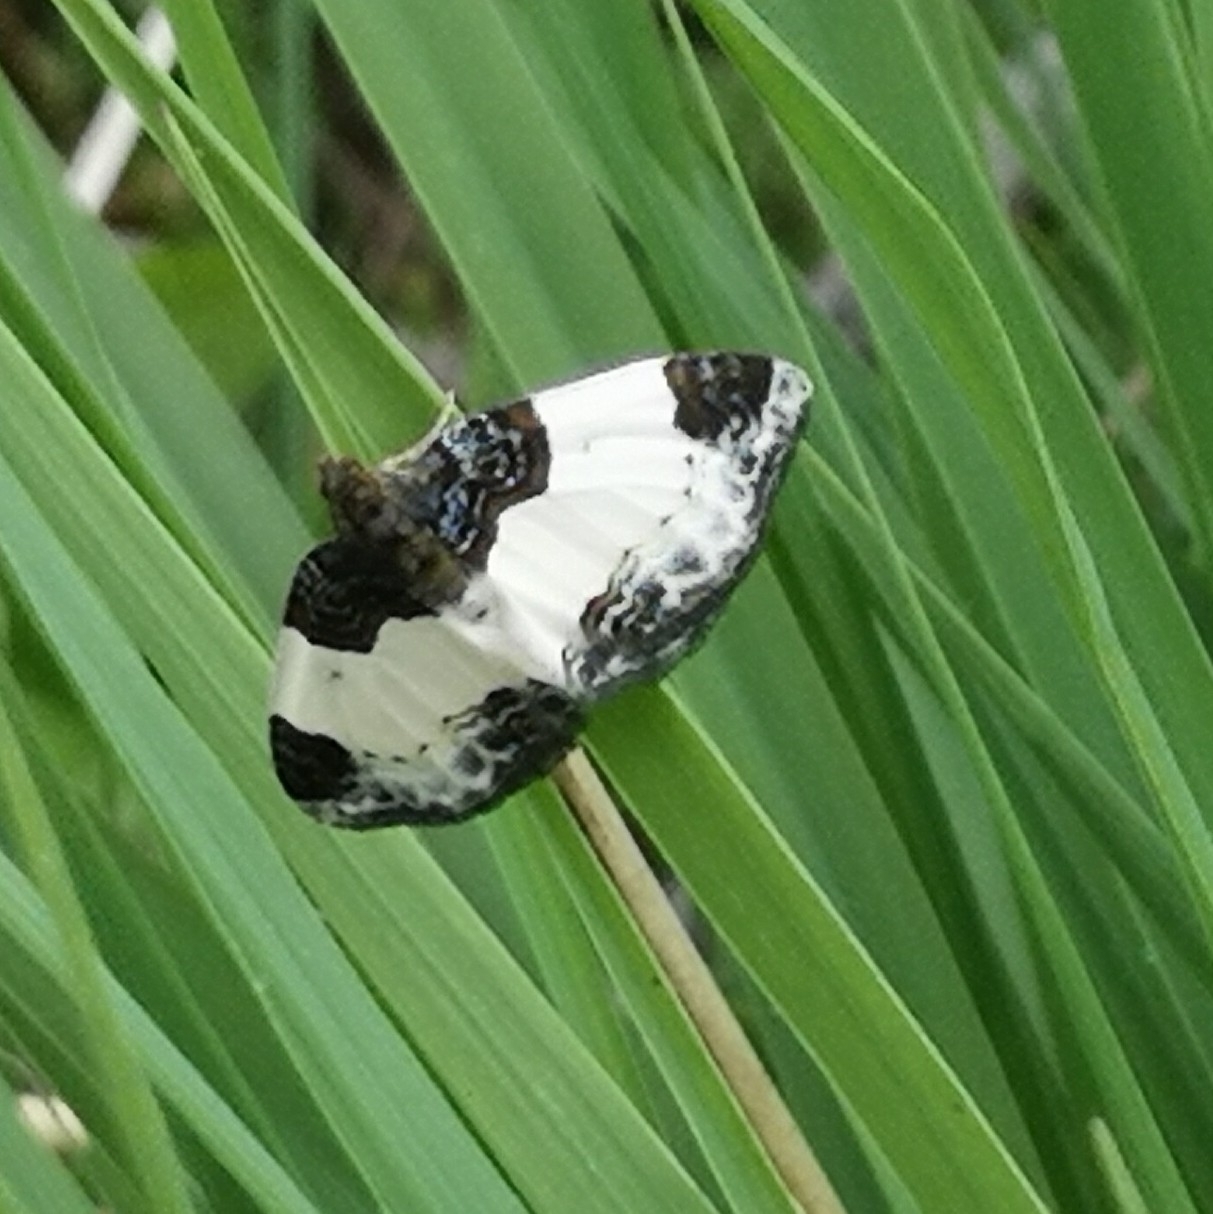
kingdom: Animalia
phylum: Arthropoda
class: Insecta
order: Lepidoptera
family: Geometridae
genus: Mesoleuca
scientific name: Mesoleuca albicillata
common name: Beautiful carpet
